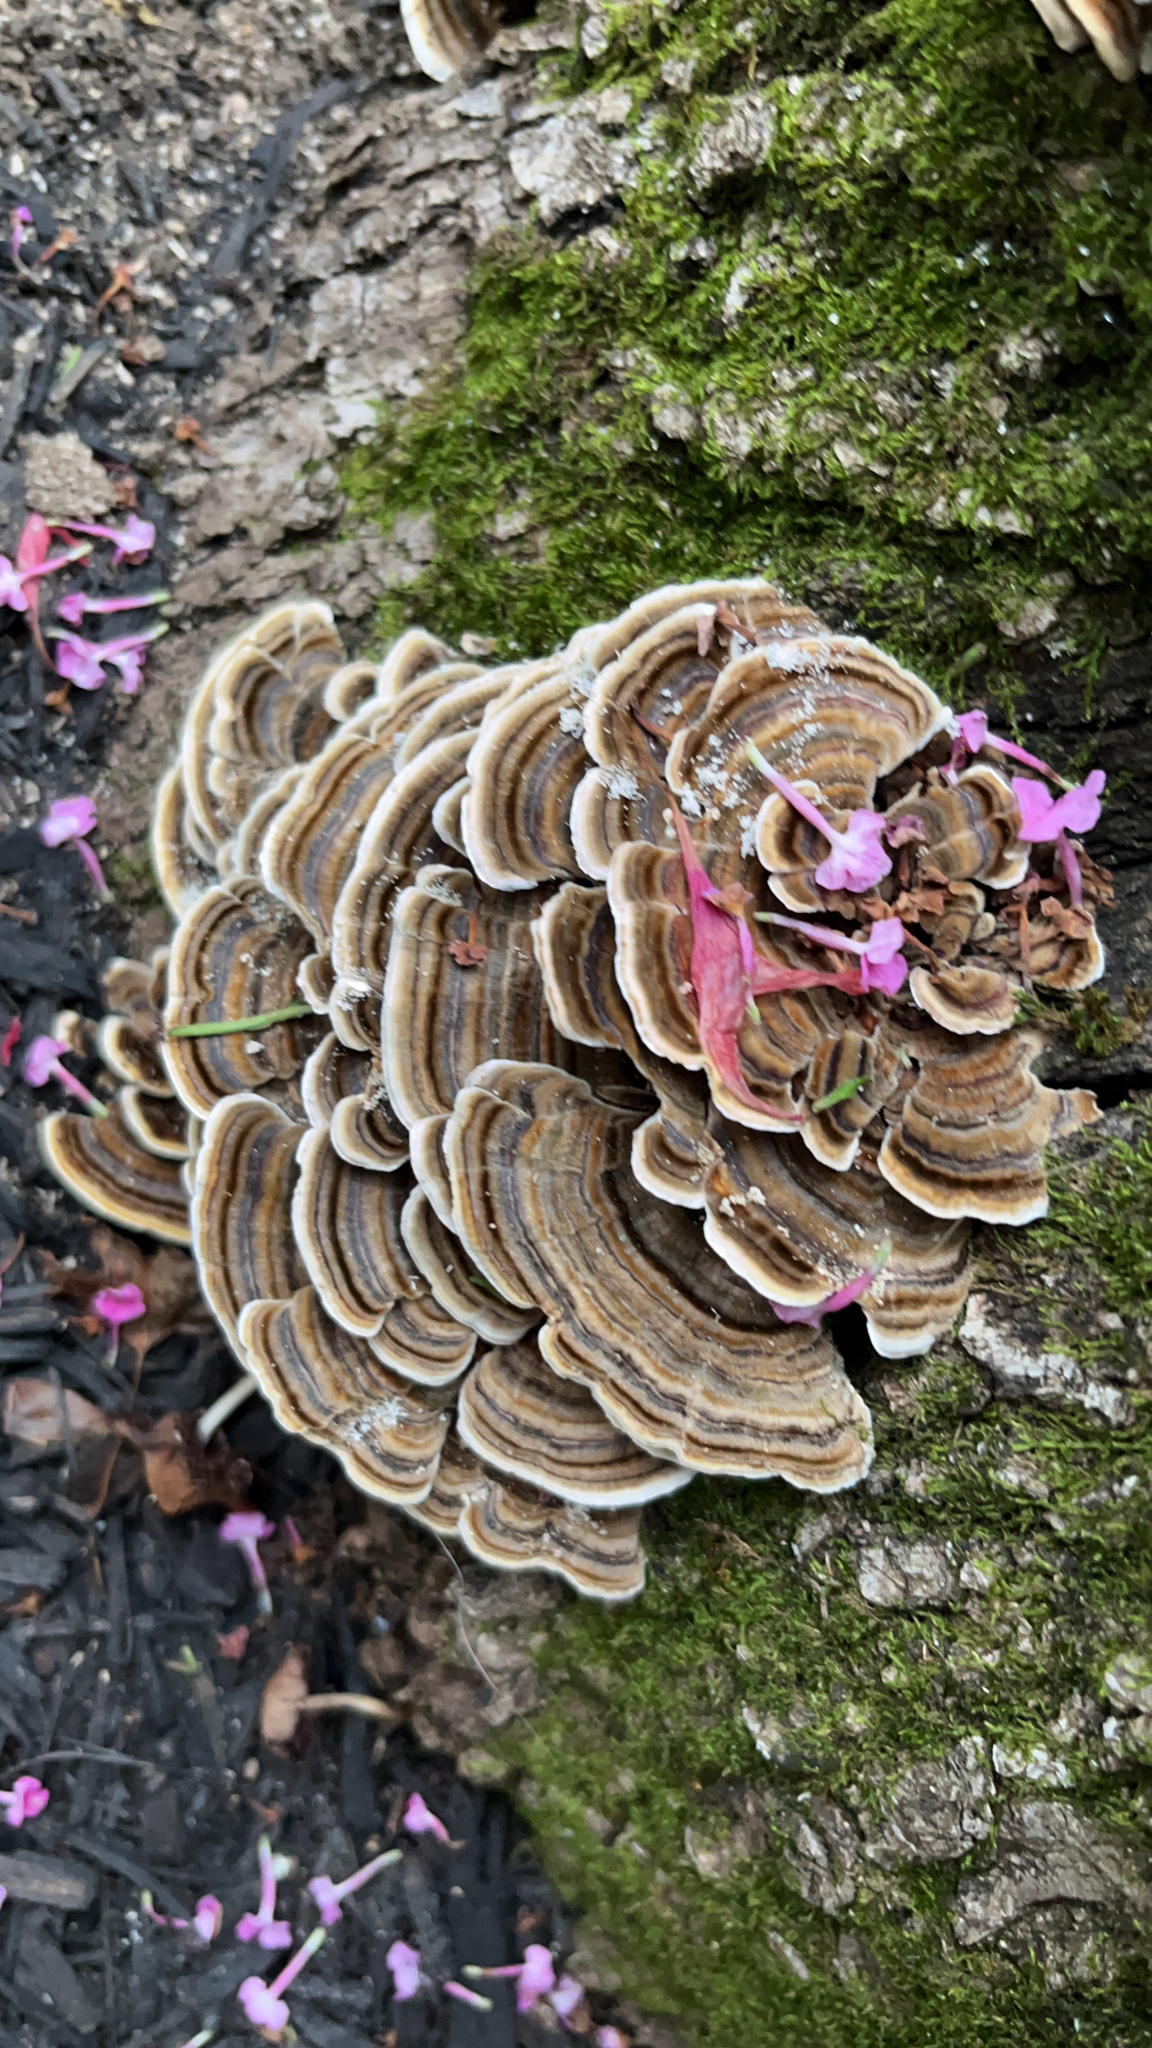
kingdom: Fungi
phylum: Basidiomycota
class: Agaricomycetes
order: Polyporales
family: Polyporaceae
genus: Trametes
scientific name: Trametes versicolor
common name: Turkeytail
